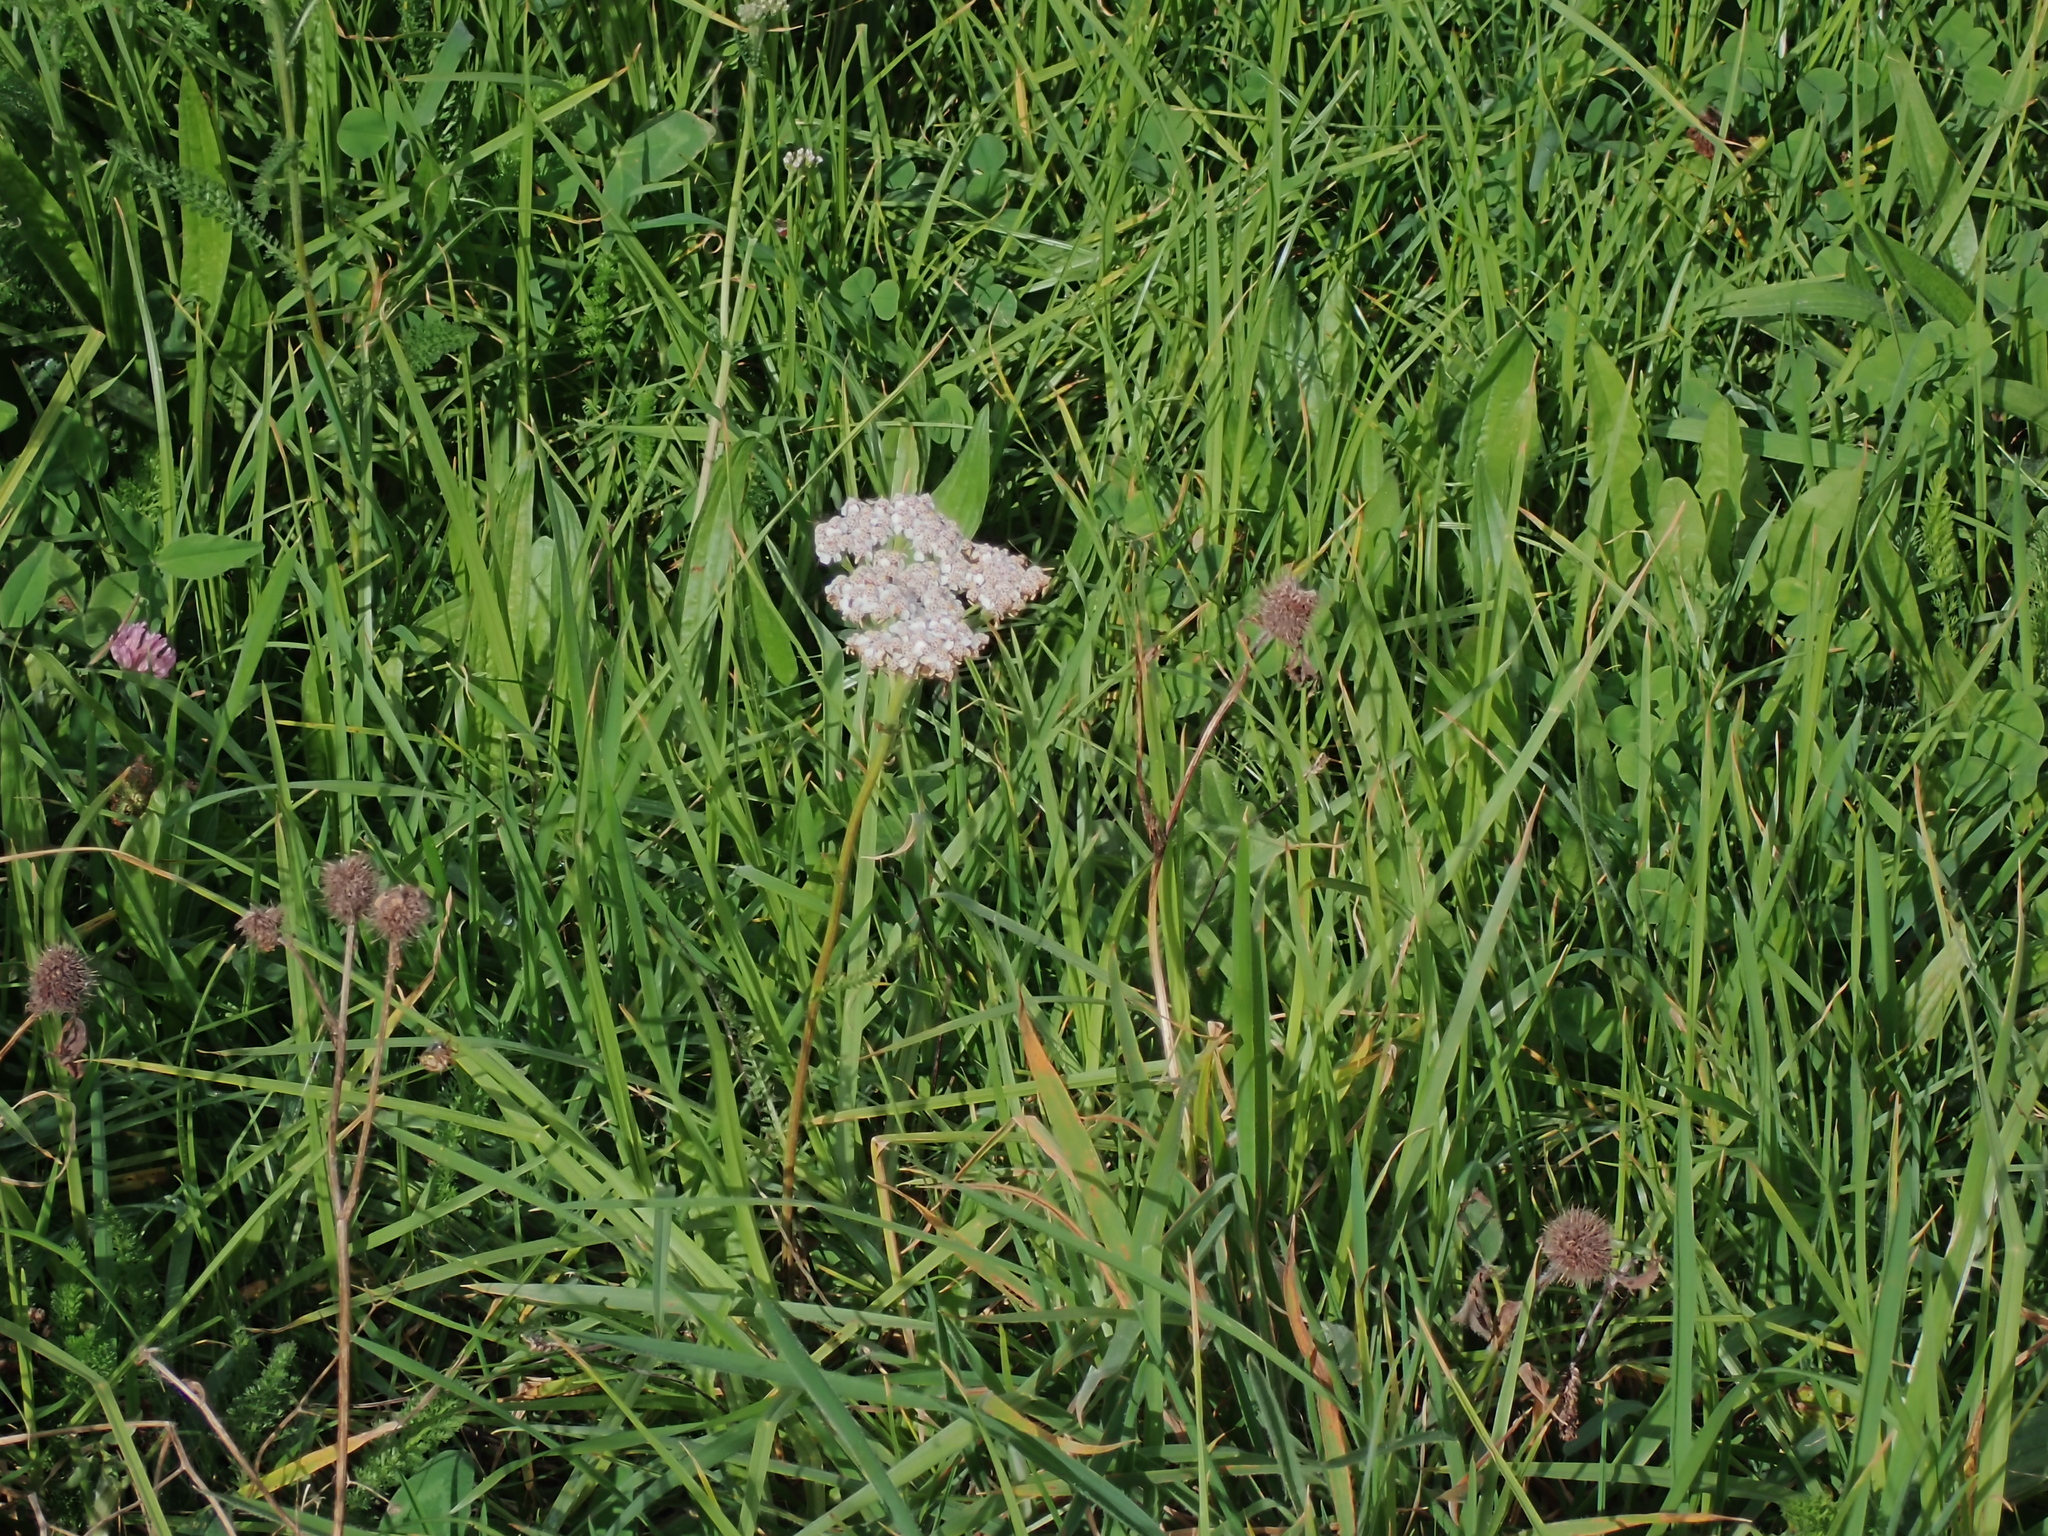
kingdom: Plantae
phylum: Tracheophyta
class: Magnoliopsida
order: Asterales
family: Asteraceae
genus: Achillea
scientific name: Achillea millefolium
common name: Yarrow
